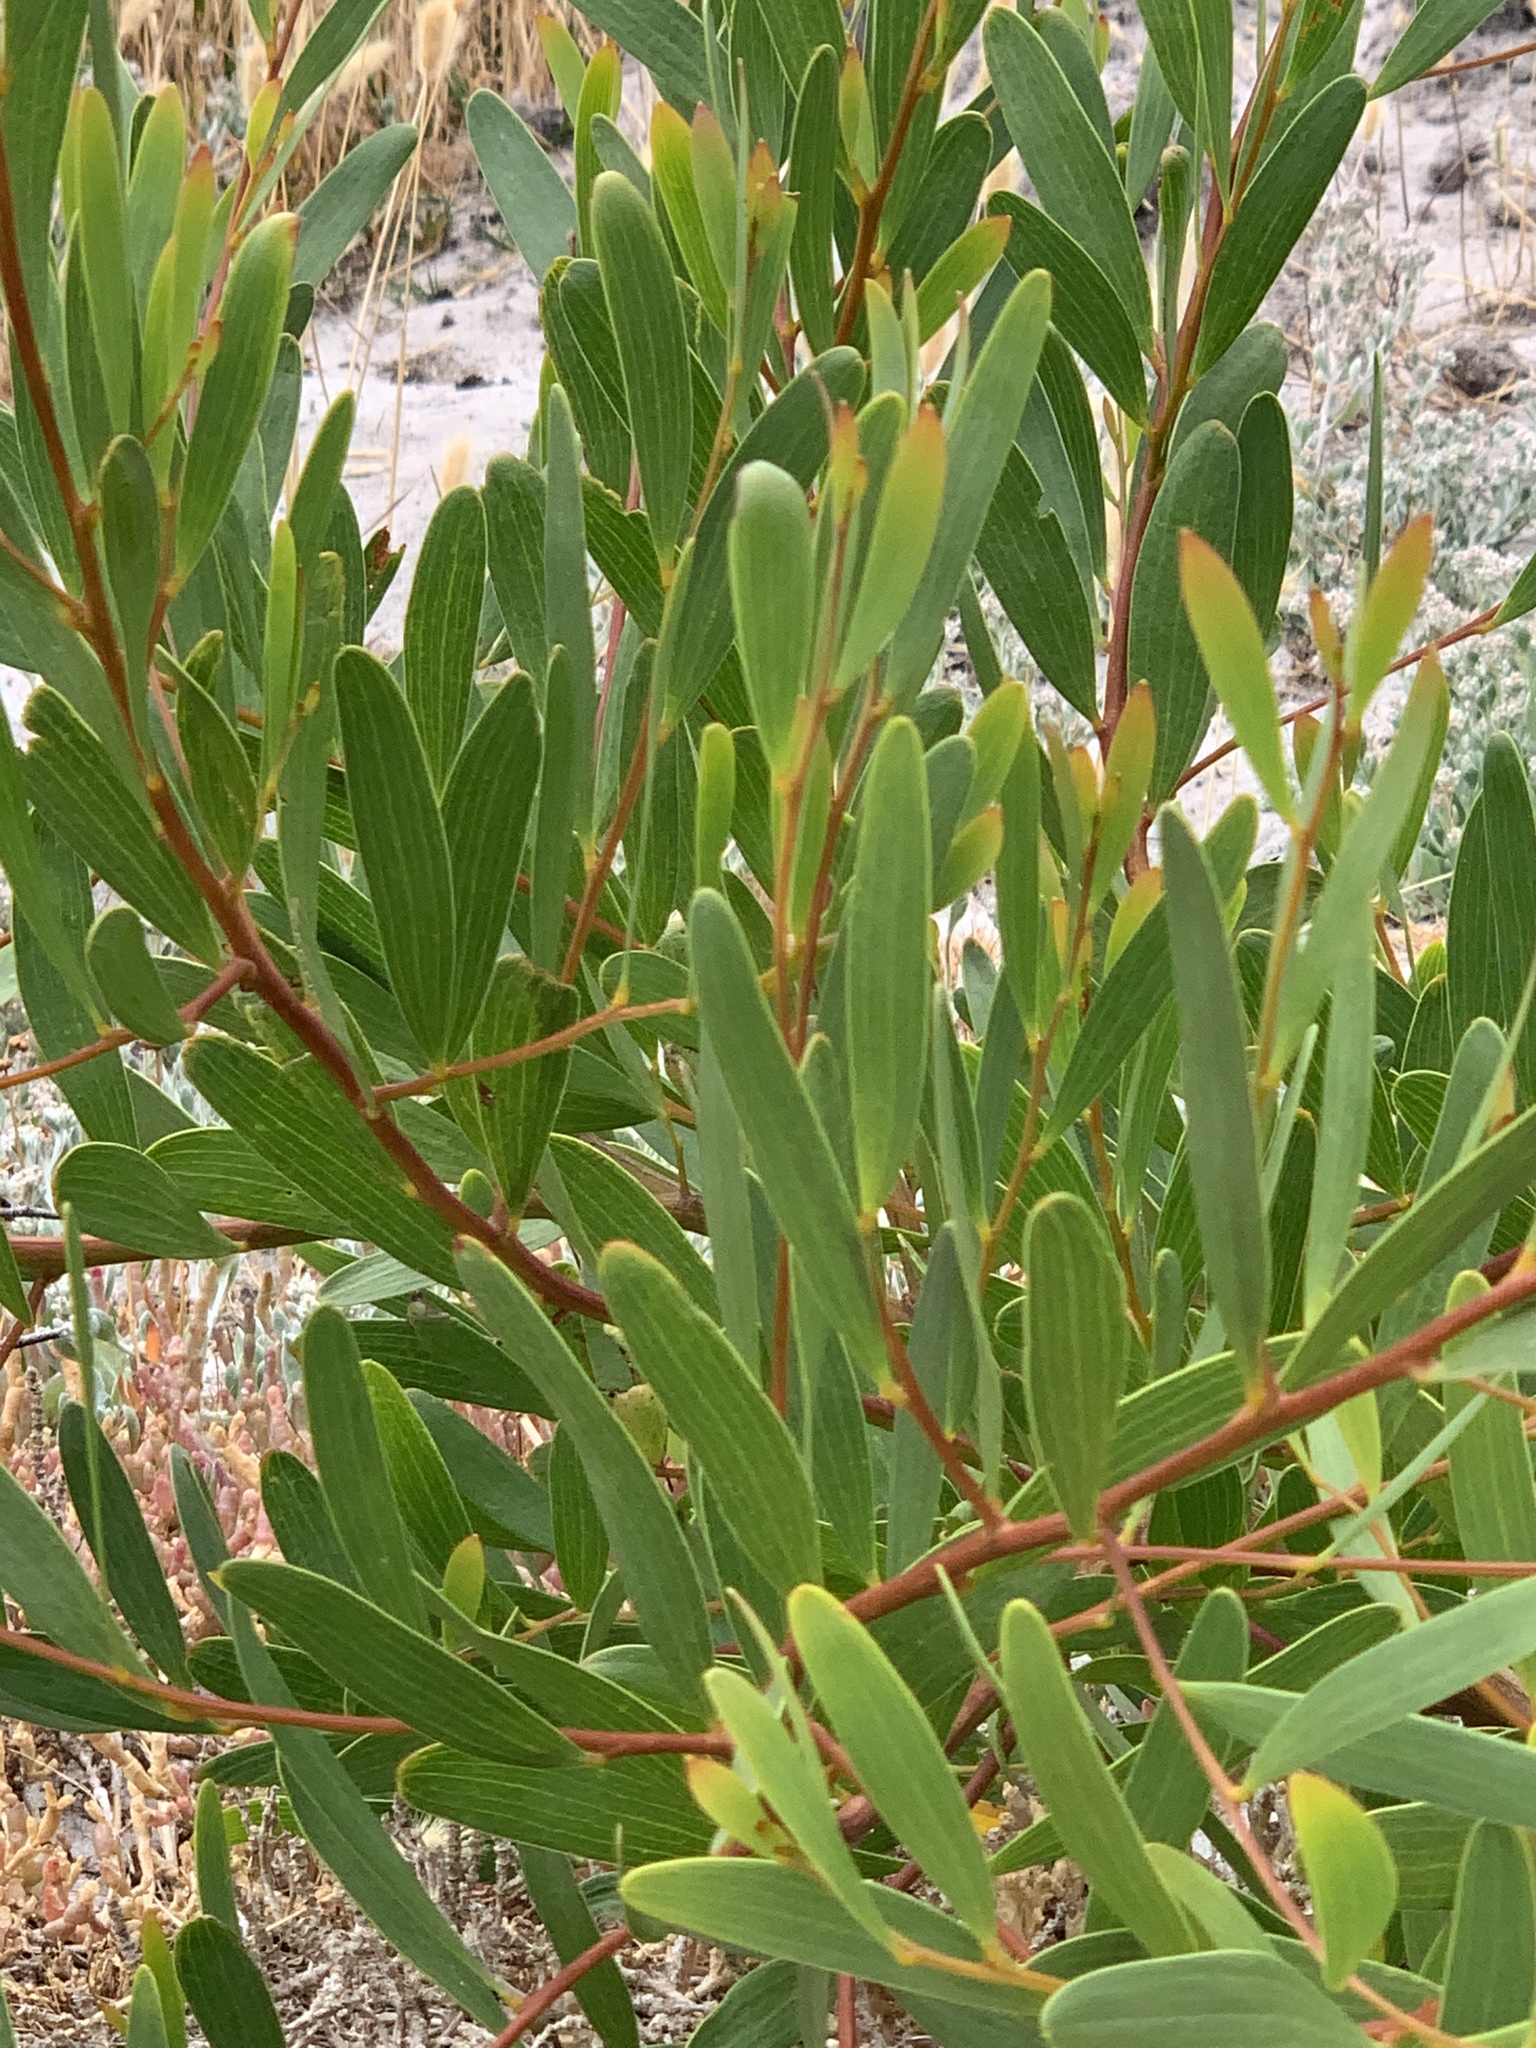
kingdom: Plantae
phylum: Tracheophyta
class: Magnoliopsida
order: Fabales
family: Fabaceae
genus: Acacia
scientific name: Acacia cyclops
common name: Coastal wattle
